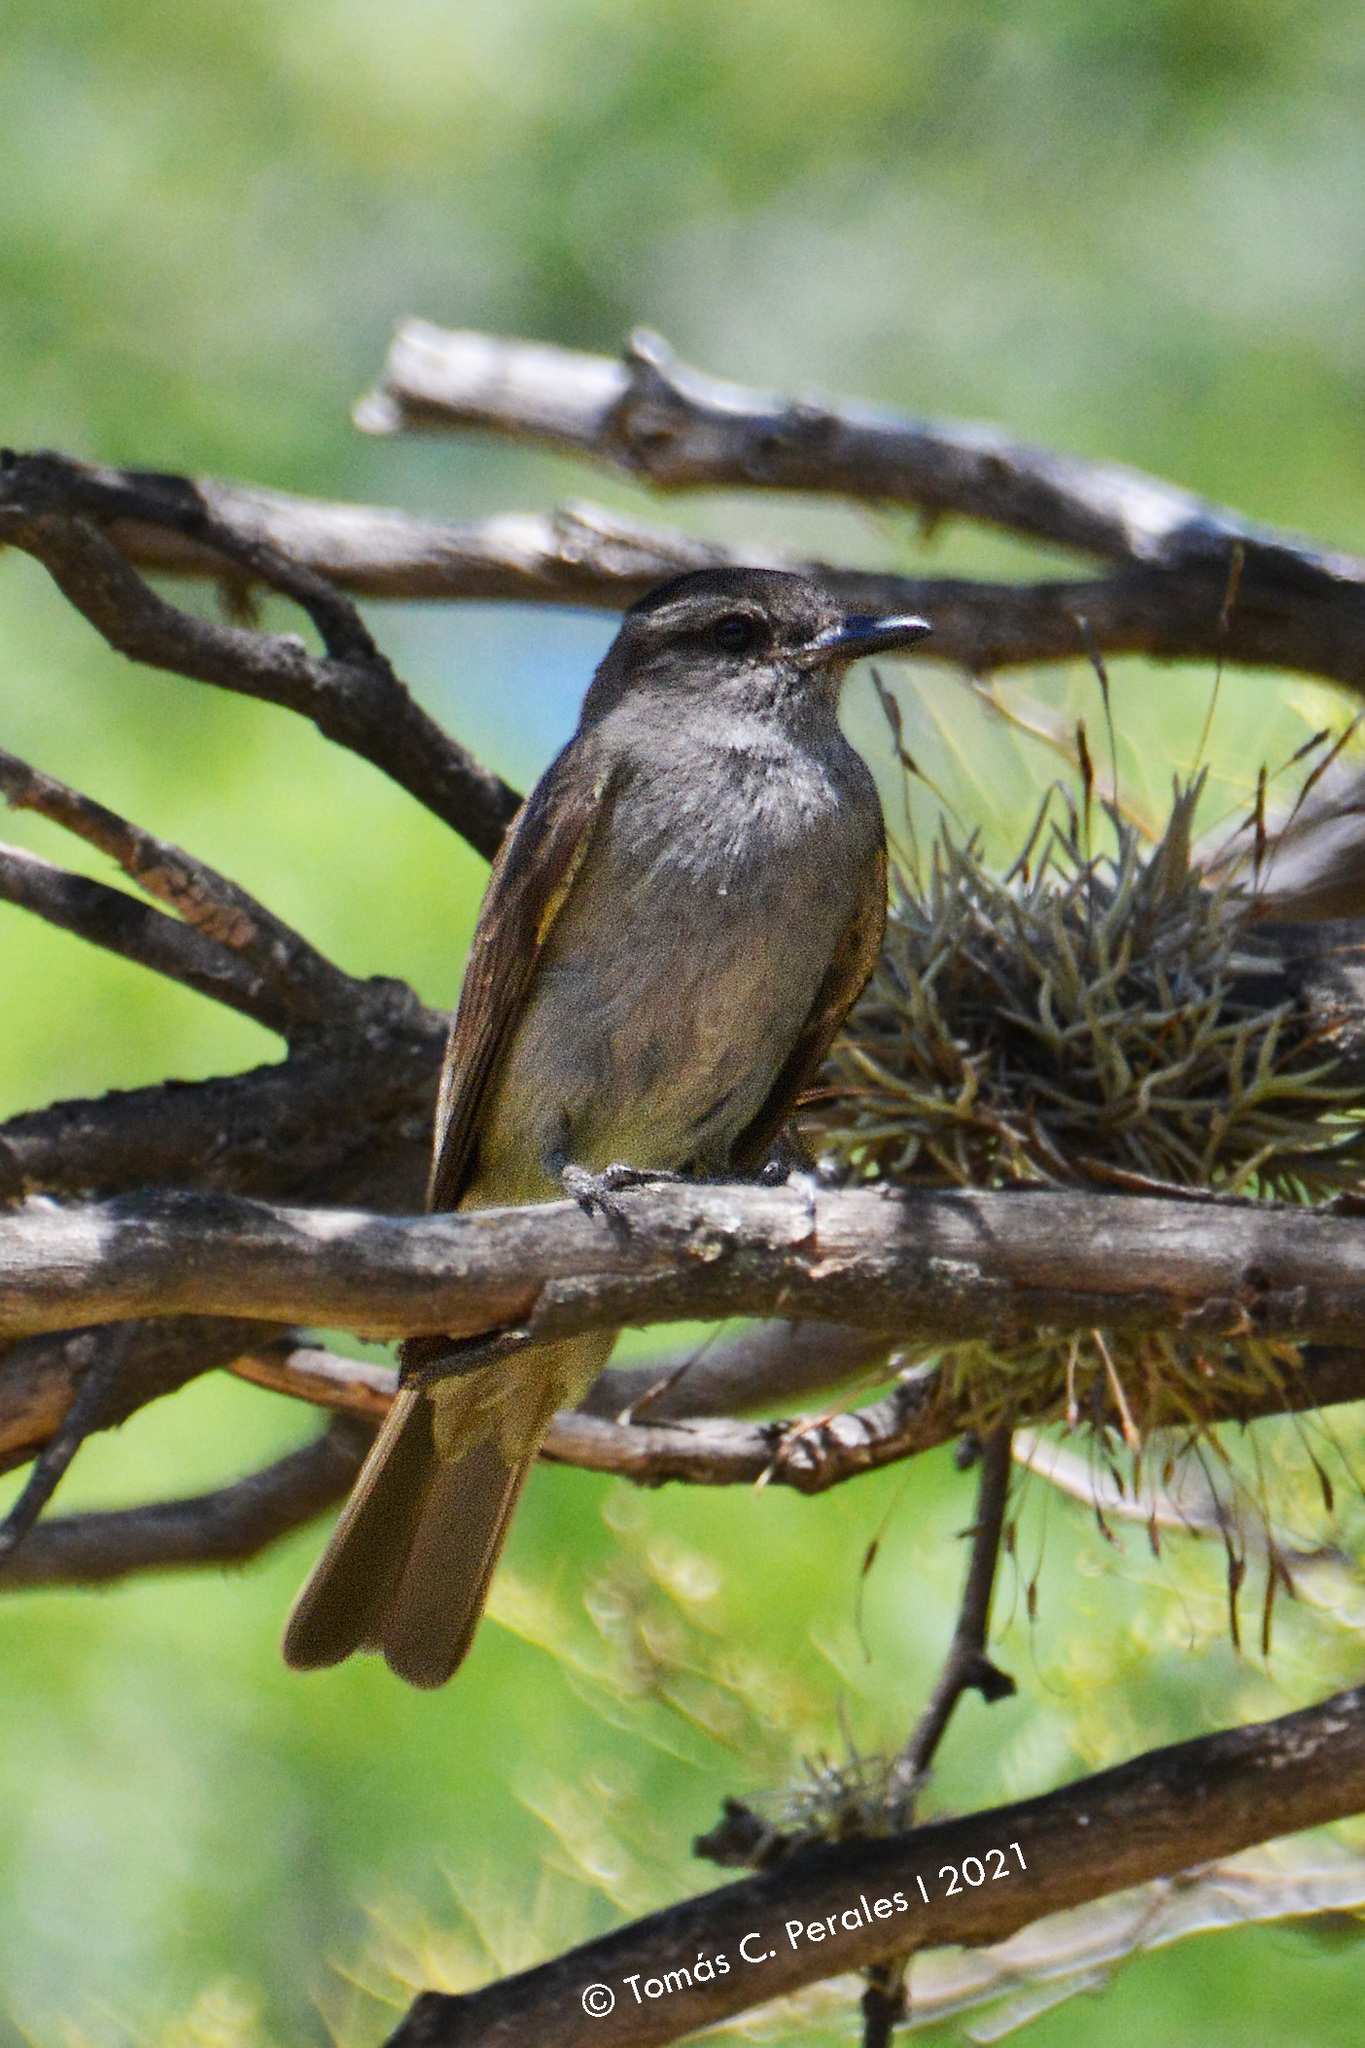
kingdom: Animalia
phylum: Chordata
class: Aves
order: Passeriformes
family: Tyrannidae
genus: Empidonomus
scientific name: Empidonomus aurantioatrocristatus
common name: Crowned slaty flycatcher
